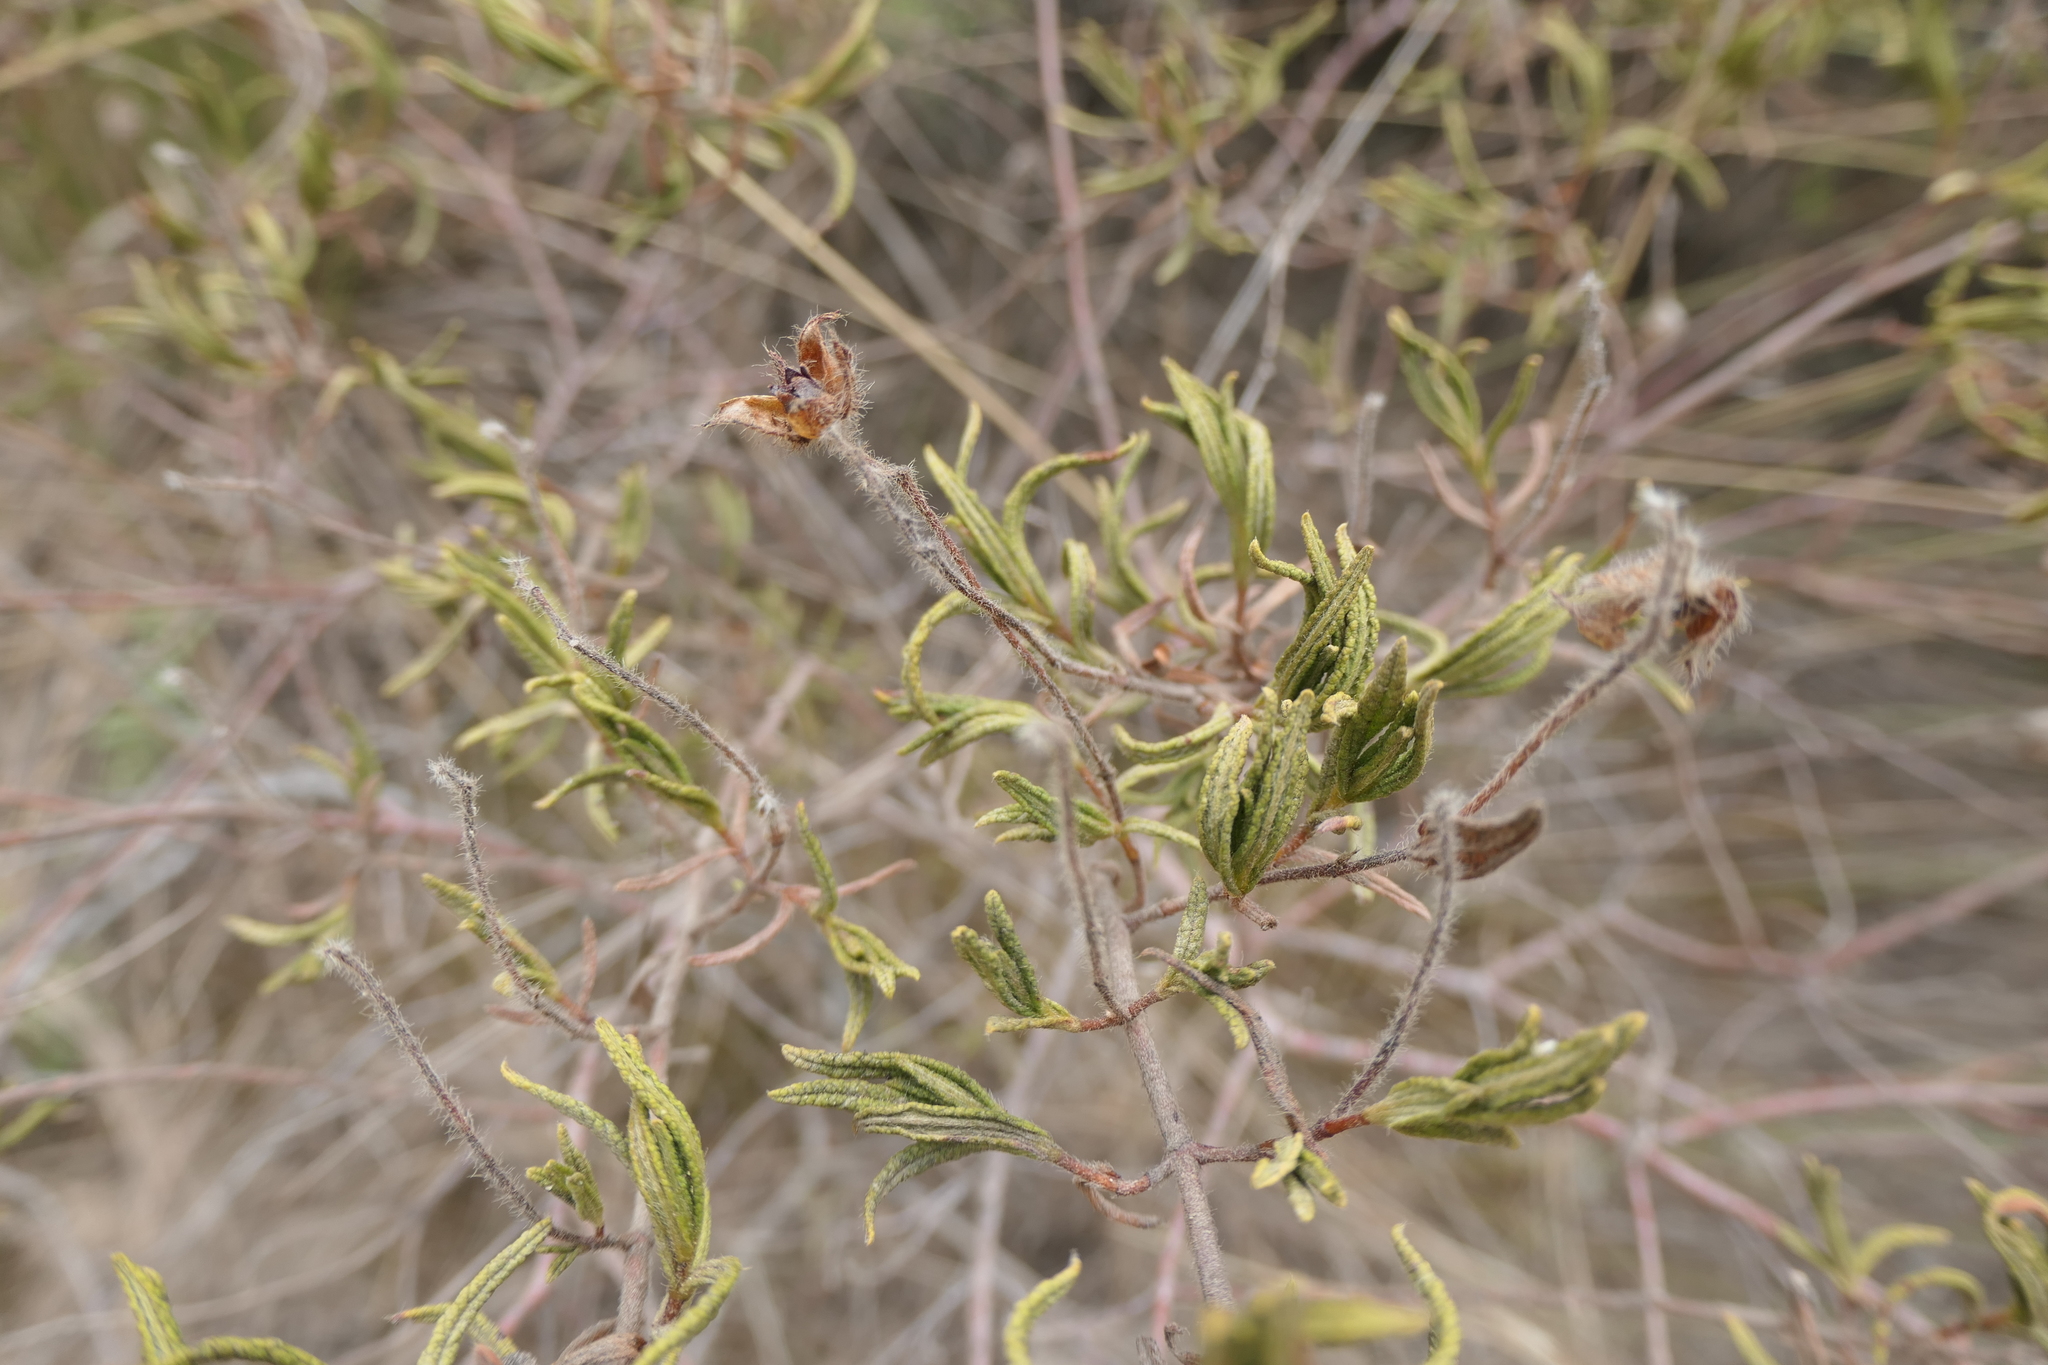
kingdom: Plantae
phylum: Tracheophyta
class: Magnoliopsida
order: Malvales
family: Cistaceae
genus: Cistus
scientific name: Cistus monspeliensis
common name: Montpelier cistus
